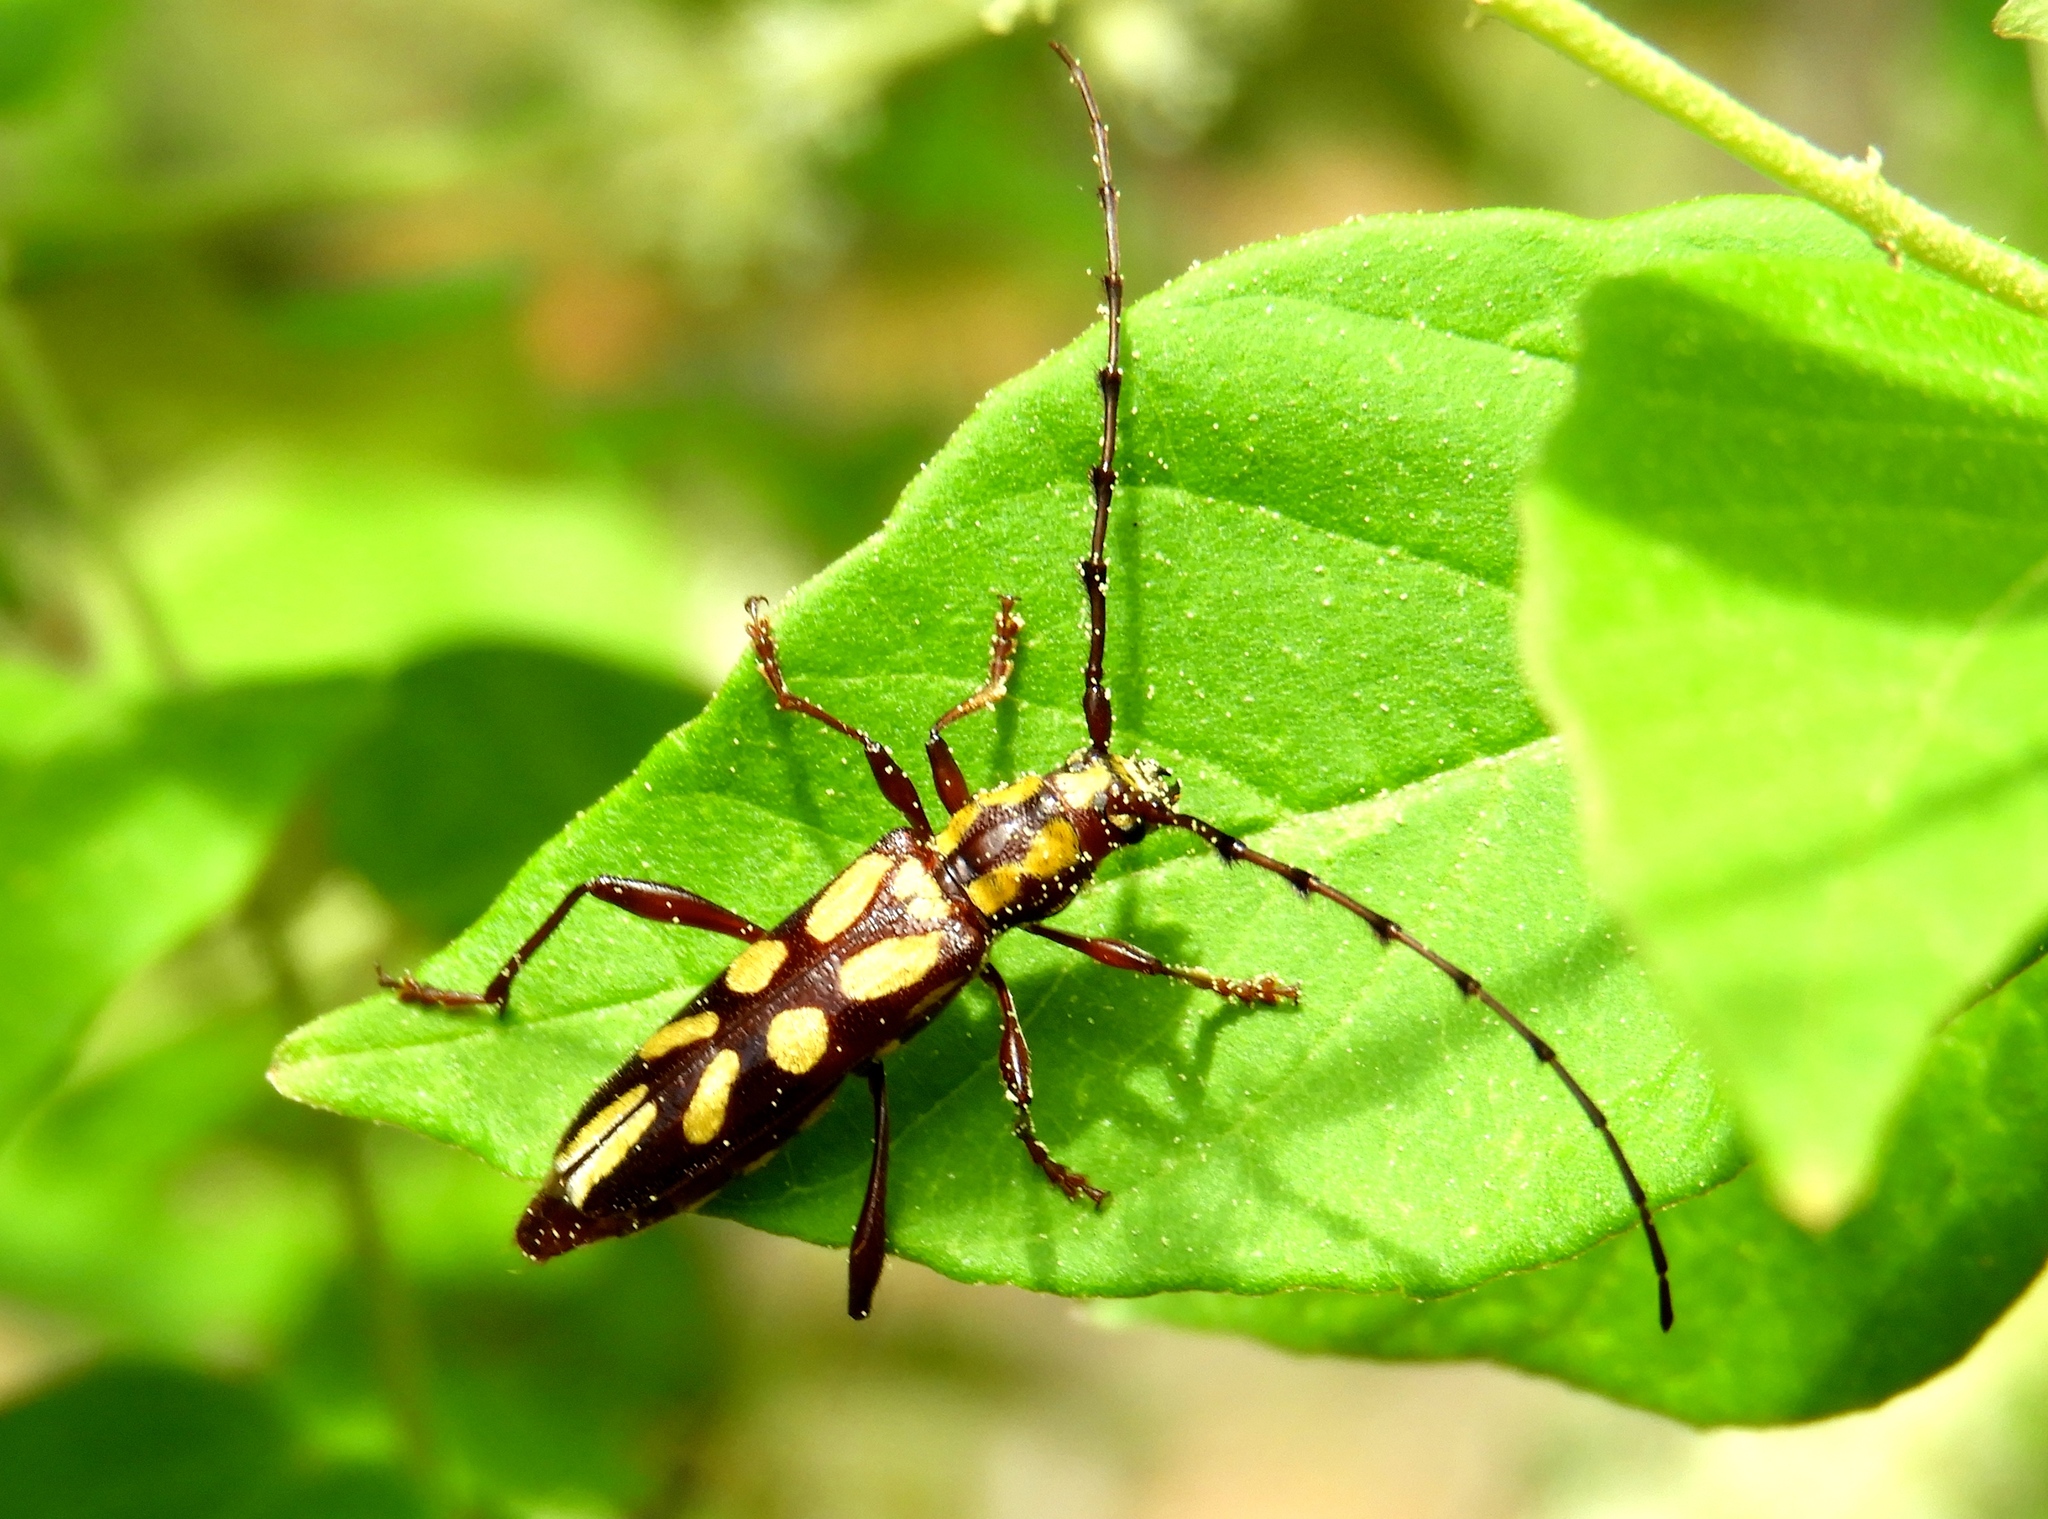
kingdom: Animalia
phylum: Arthropoda
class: Insecta
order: Coleoptera
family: Cerambycidae
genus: Ornithia
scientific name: Ornithia zapotensis
